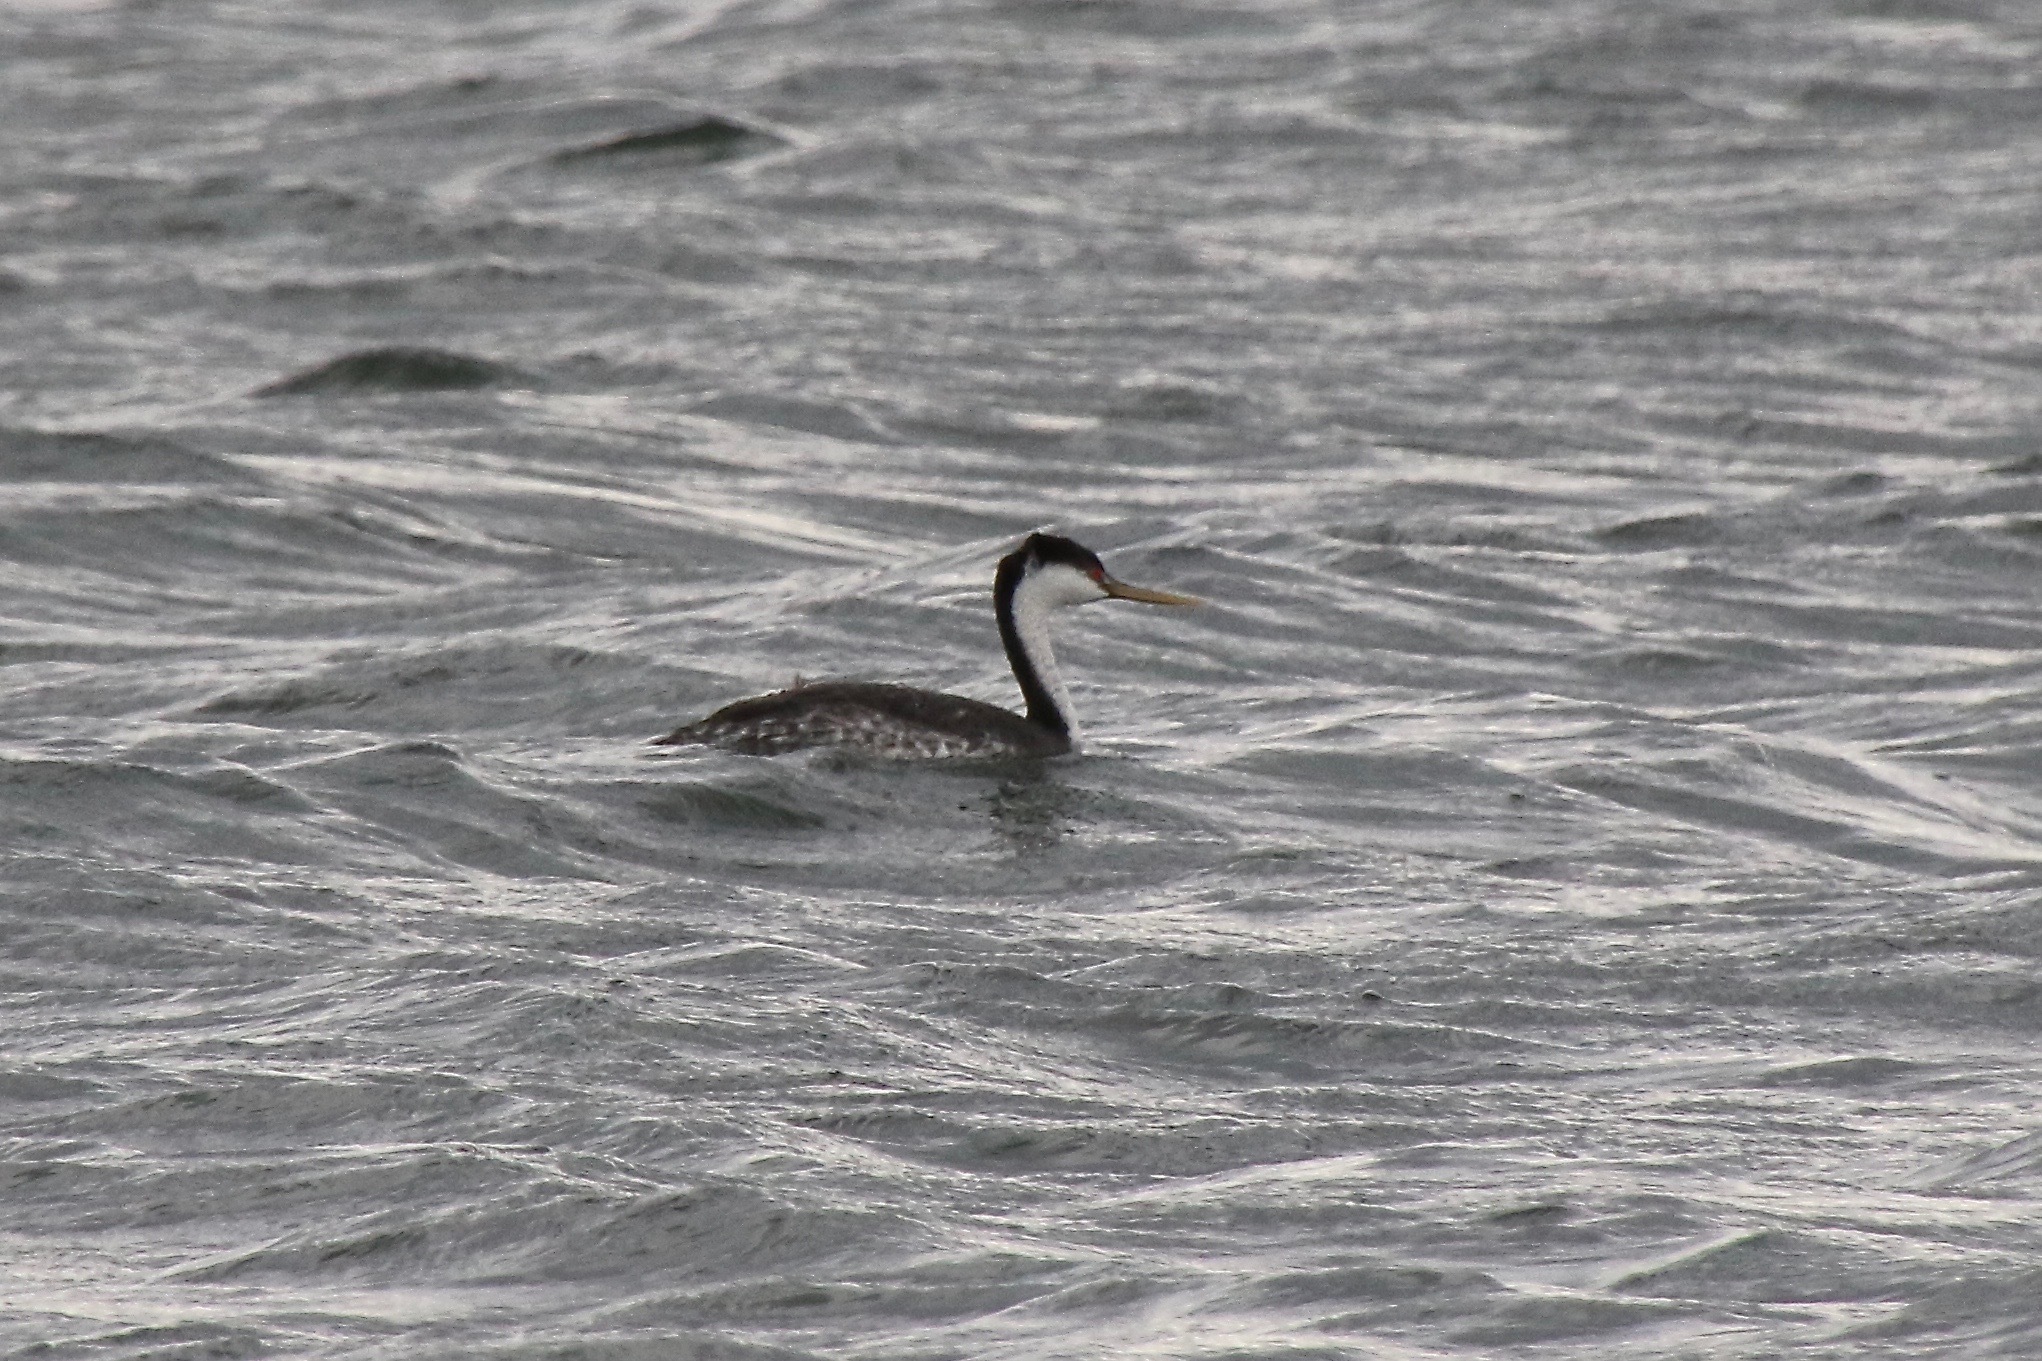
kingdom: Animalia
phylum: Chordata
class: Aves
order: Podicipediformes
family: Podicipedidae
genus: Aechmophorus
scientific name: Aechmophorus occidentalis
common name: Western grebe
